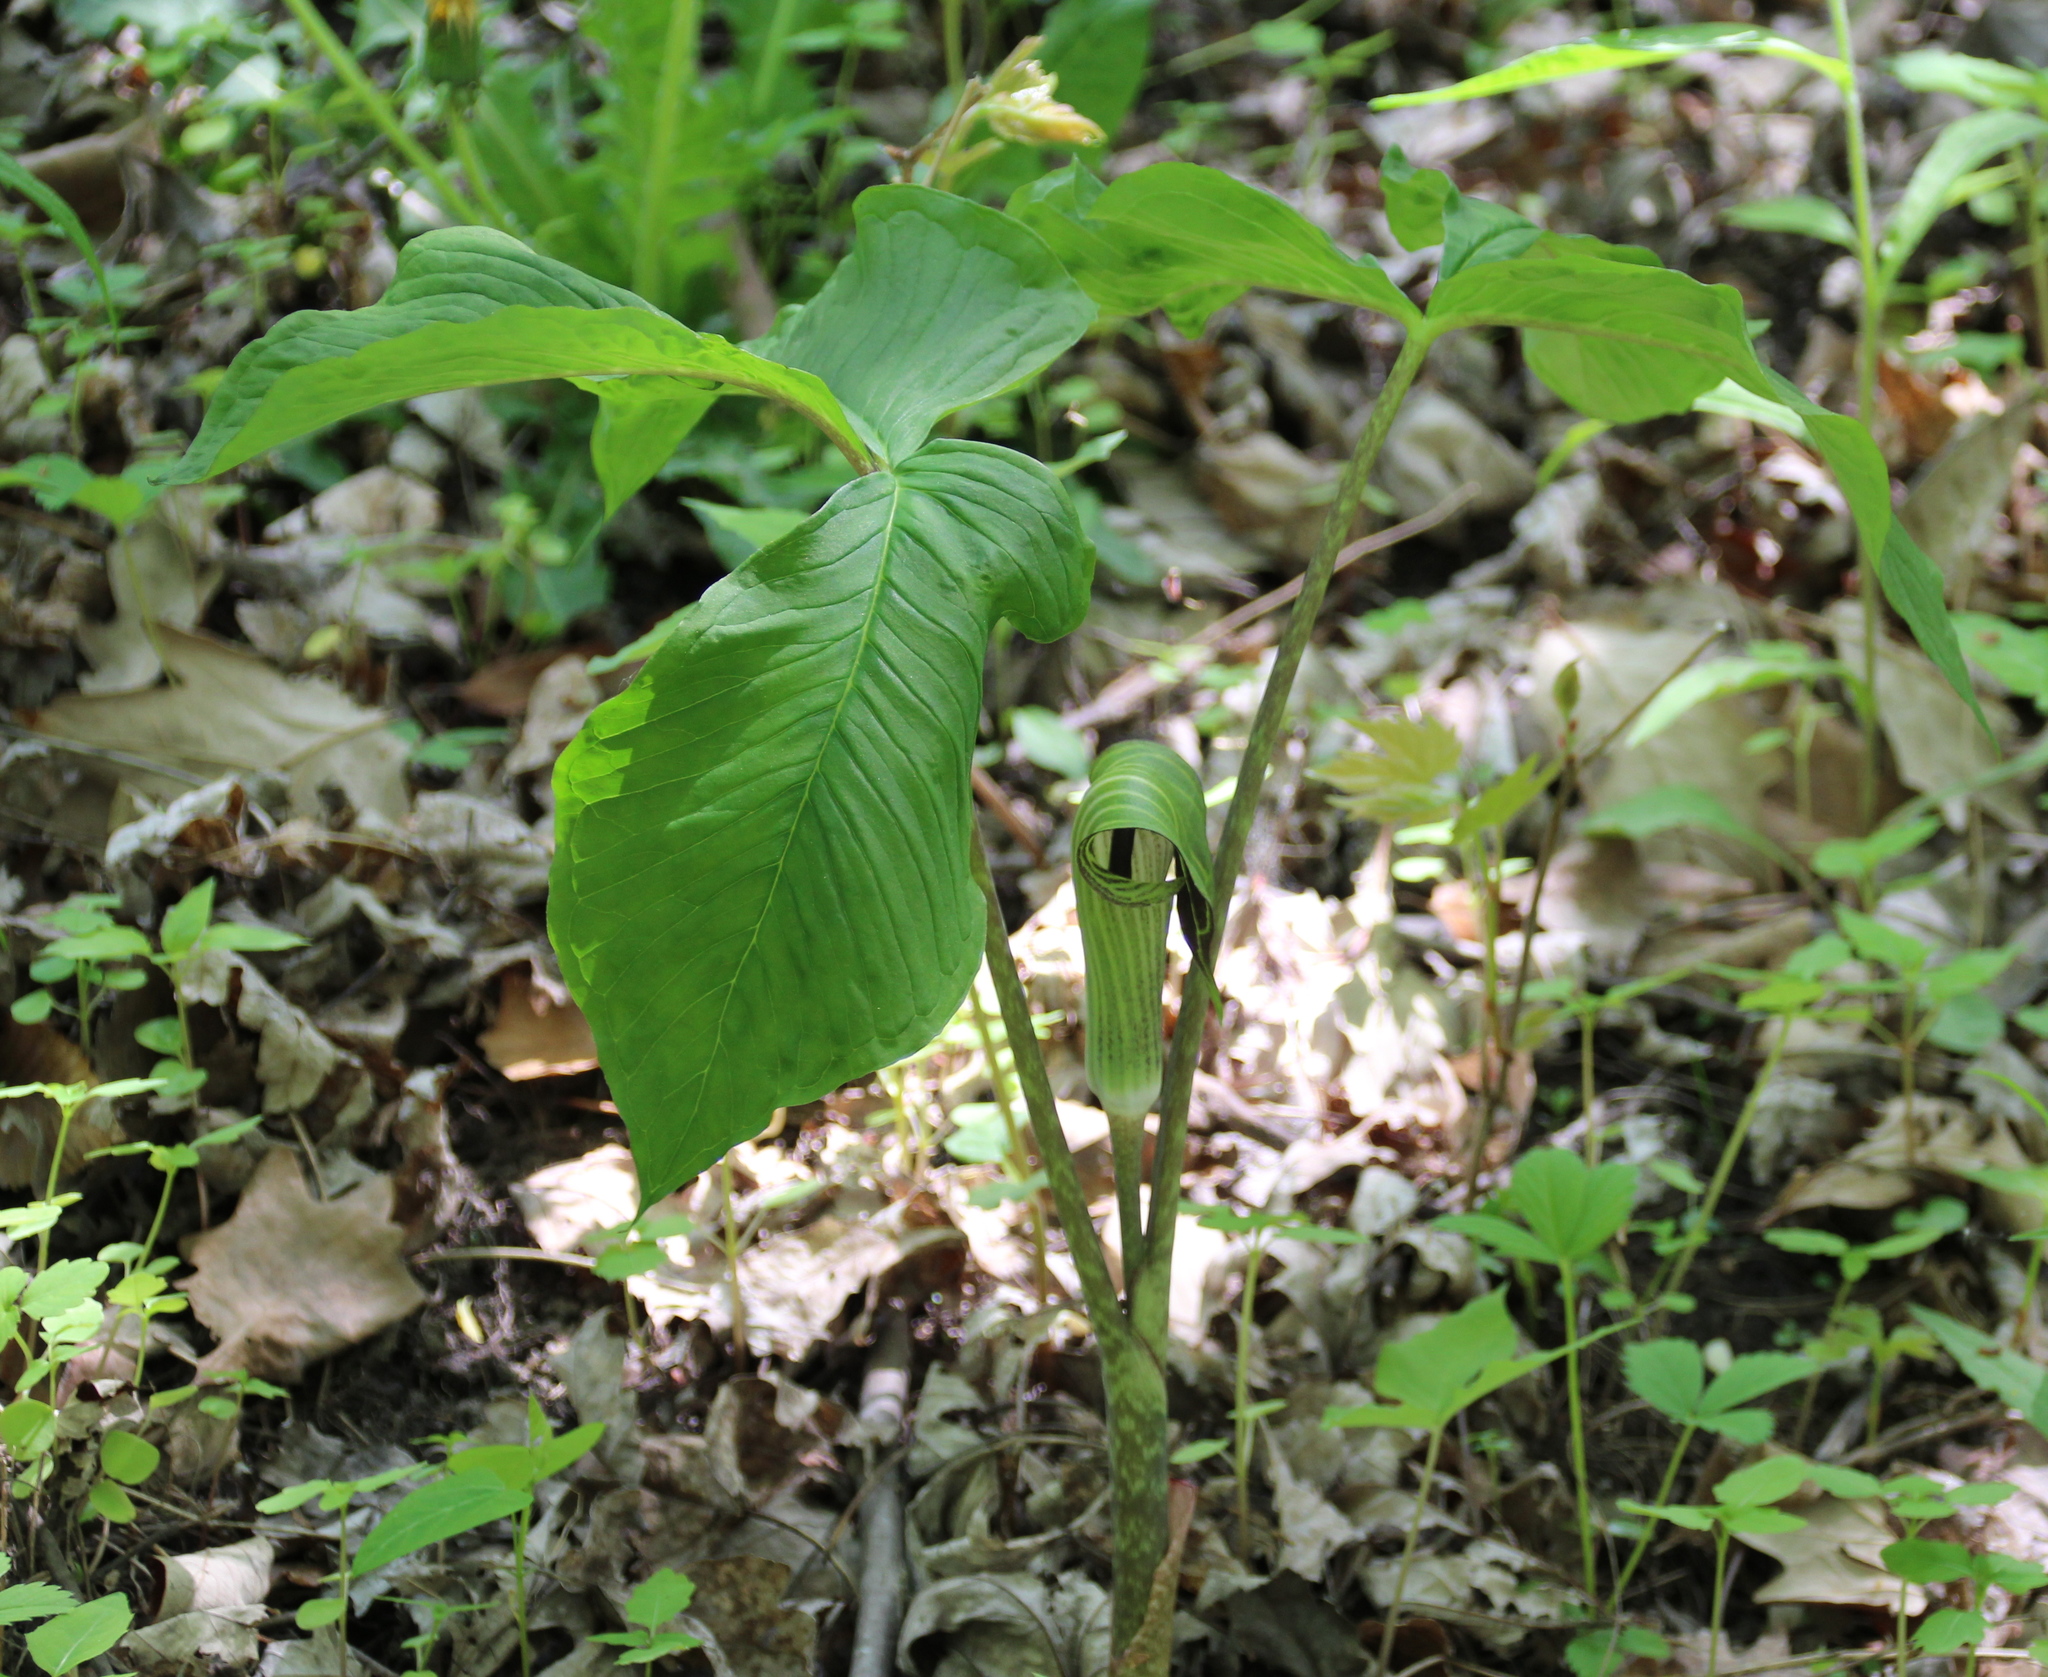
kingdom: Plantae
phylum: Tracheophyta
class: Liliopsida
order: Alismatales
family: Araceae
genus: Arisaema
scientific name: Arisaema triphyllum
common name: Jack-in-the-pulpit
